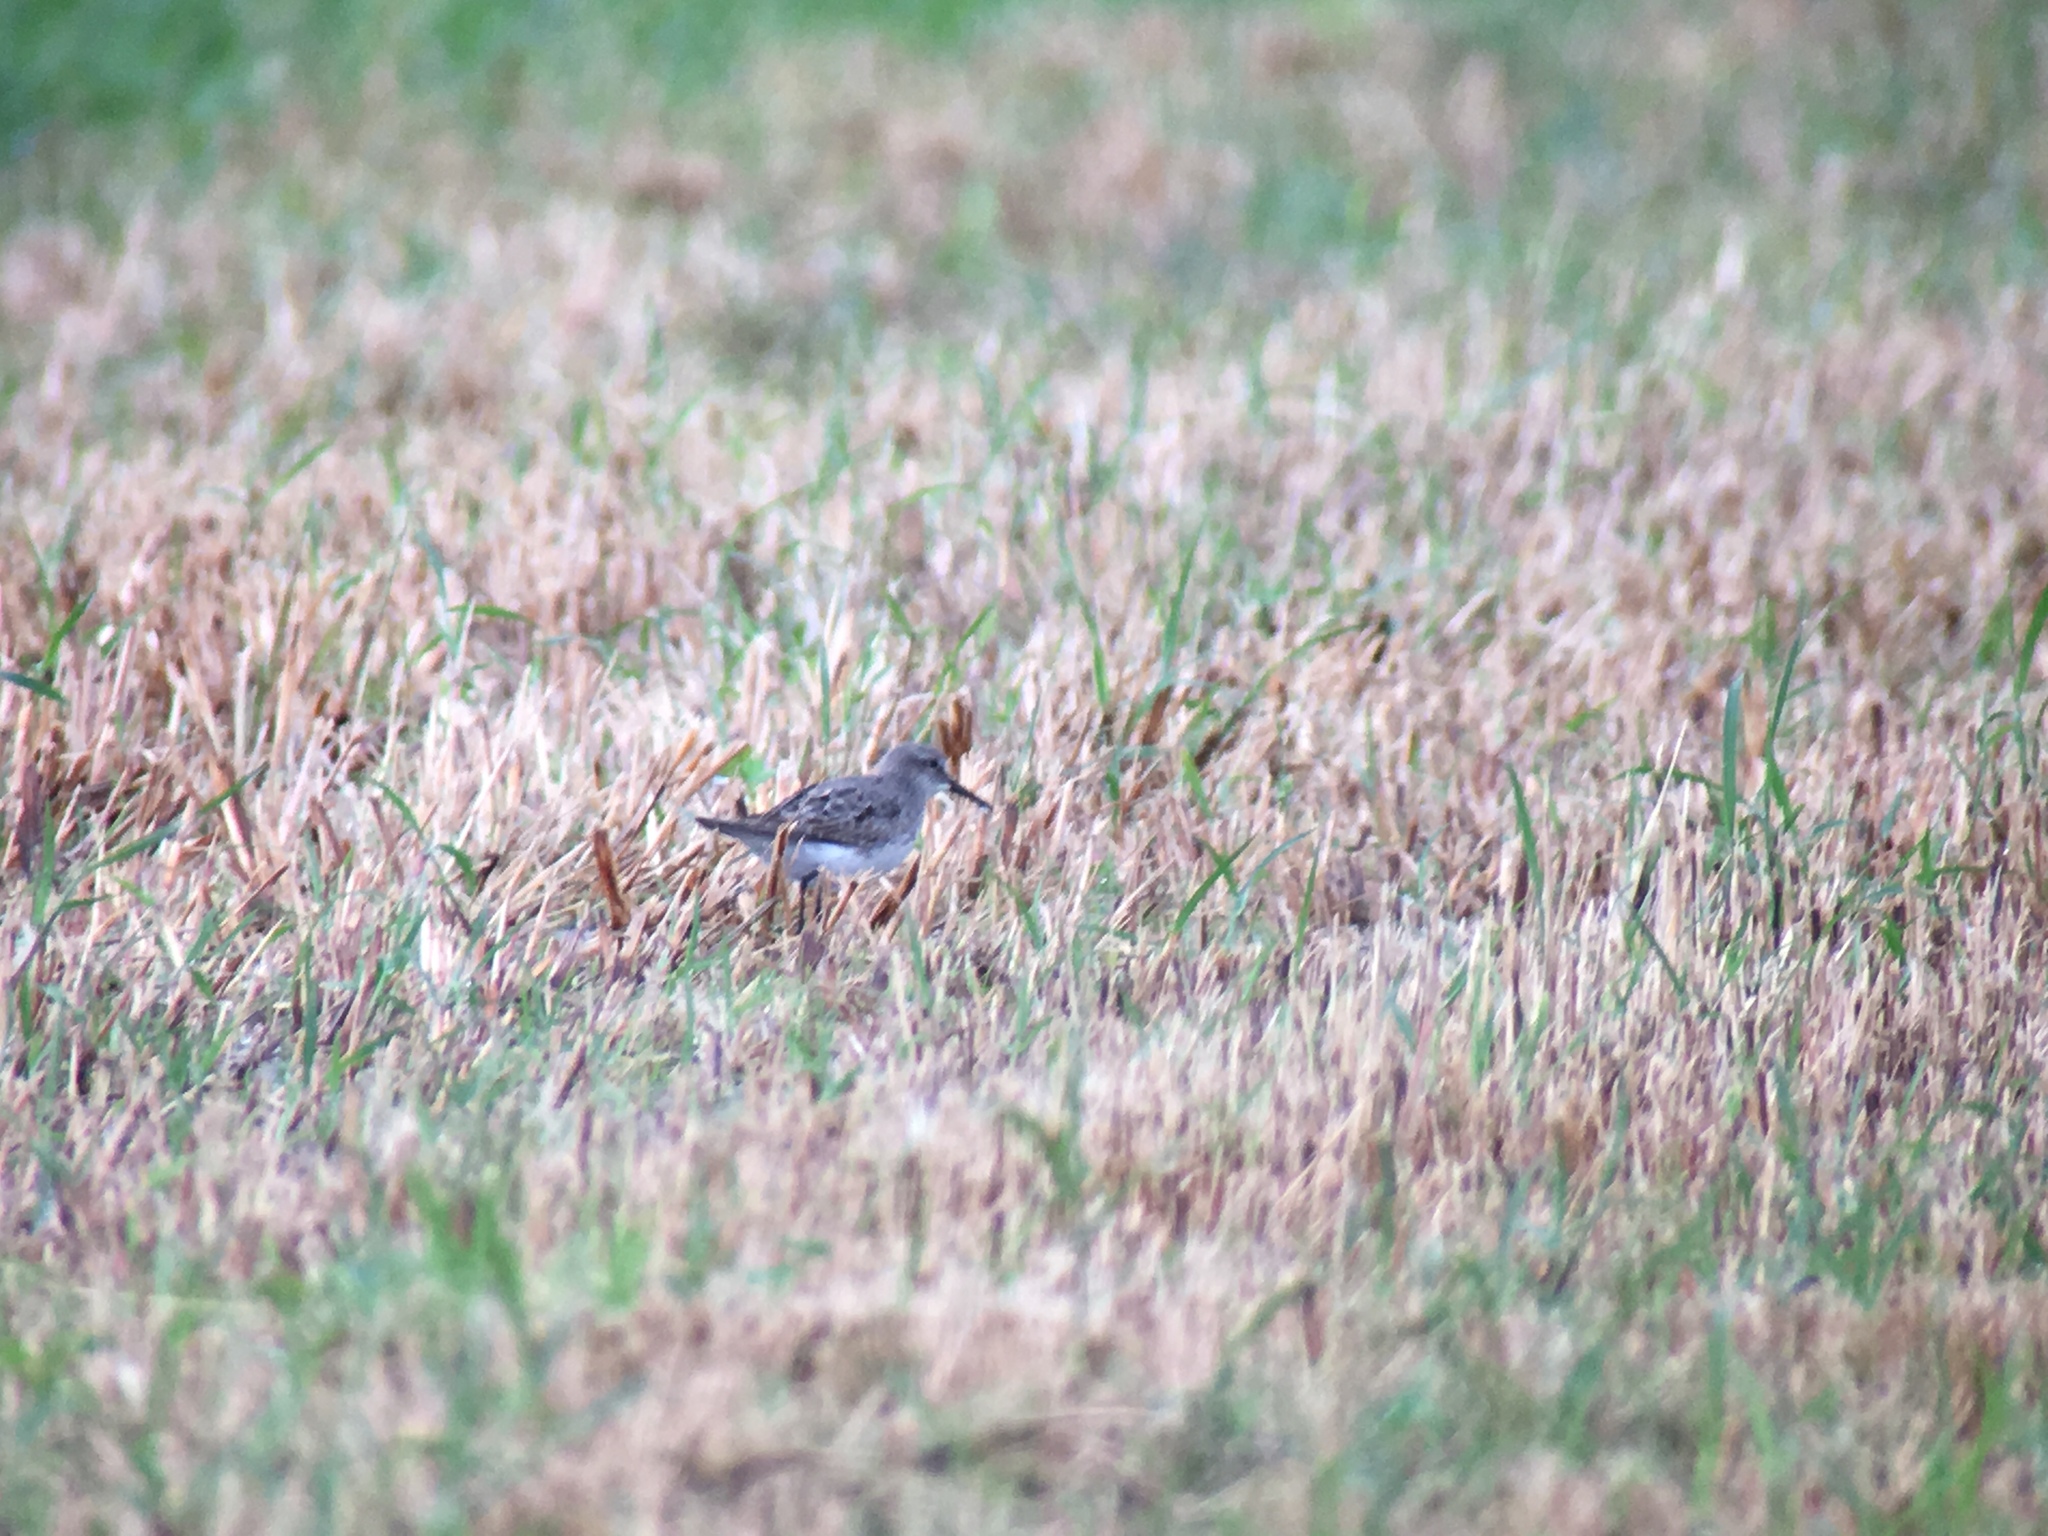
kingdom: Animalia
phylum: Chordata
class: Aves
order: Charadriiformes
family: Scolopacidae
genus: Calidris
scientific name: Calidris fuscicollis
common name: White-rumped sandpiper
